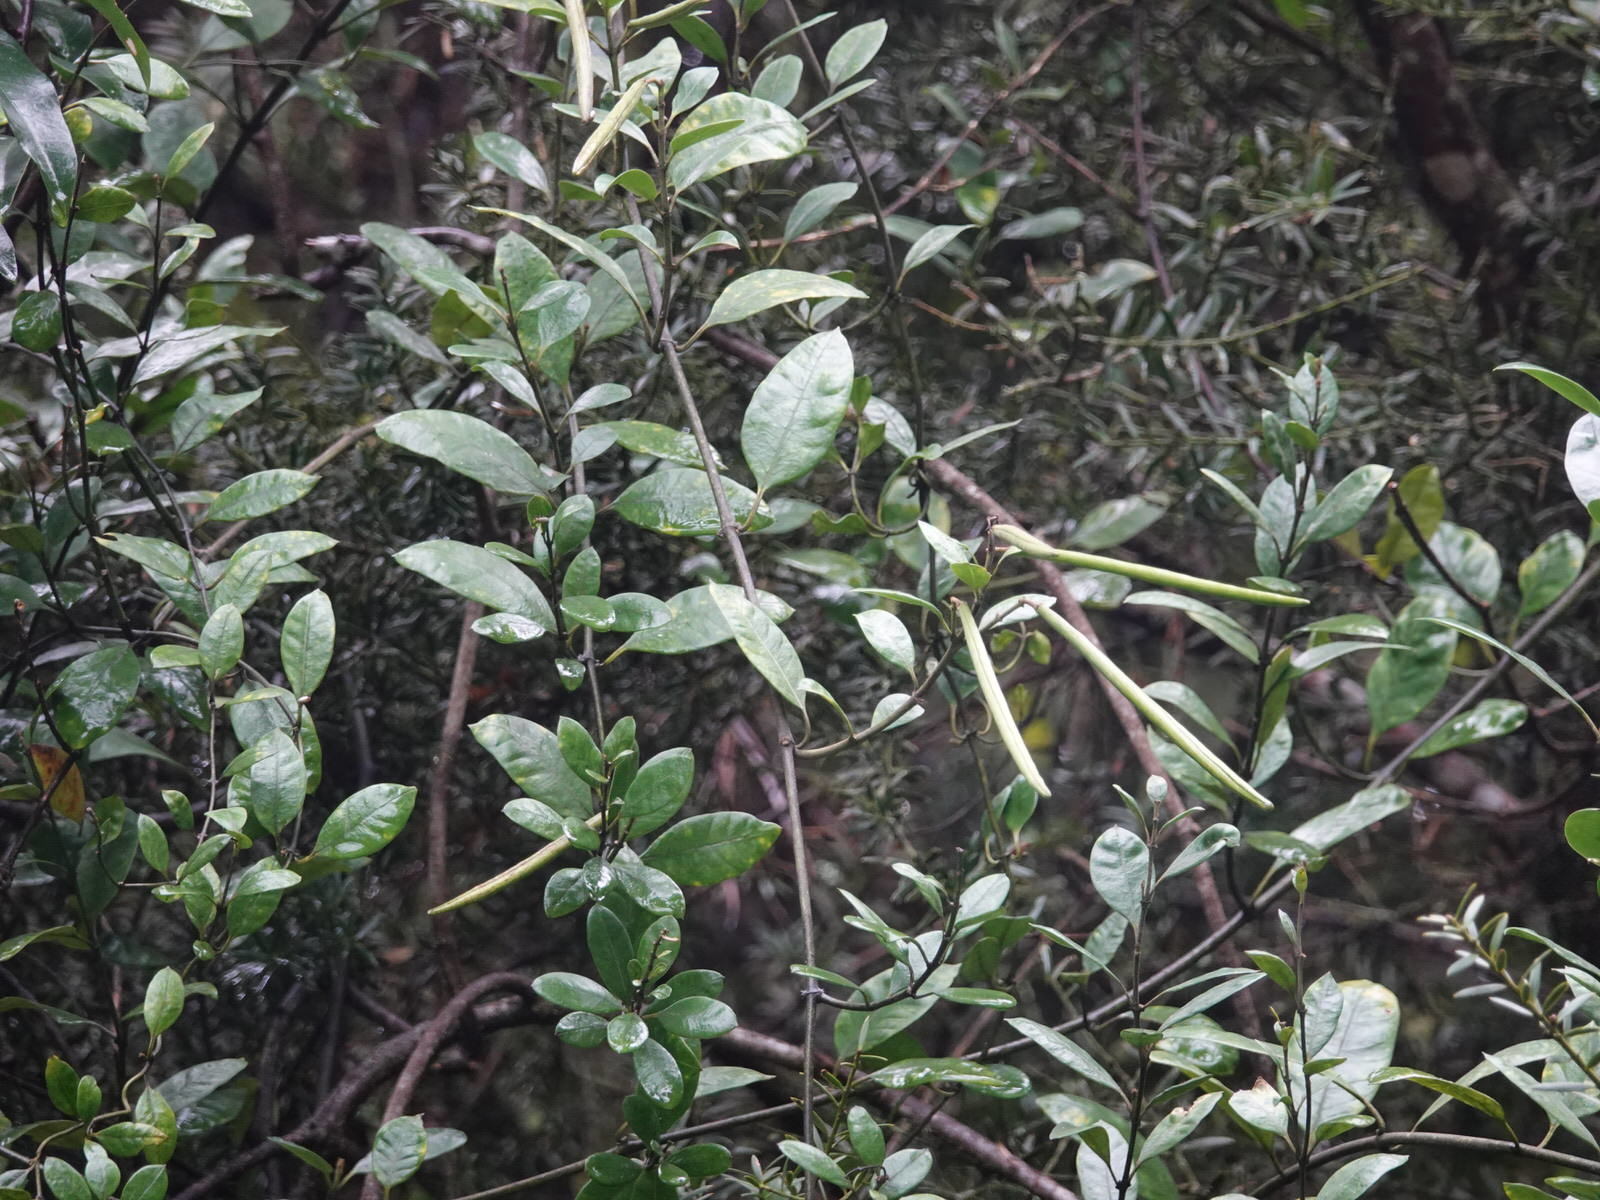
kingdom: Plantae
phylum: Tracheophyta
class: Magnoliopsida
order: Gentianales
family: Apocynaceae
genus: Parsonsia
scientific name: Parsonsia heterophylla
